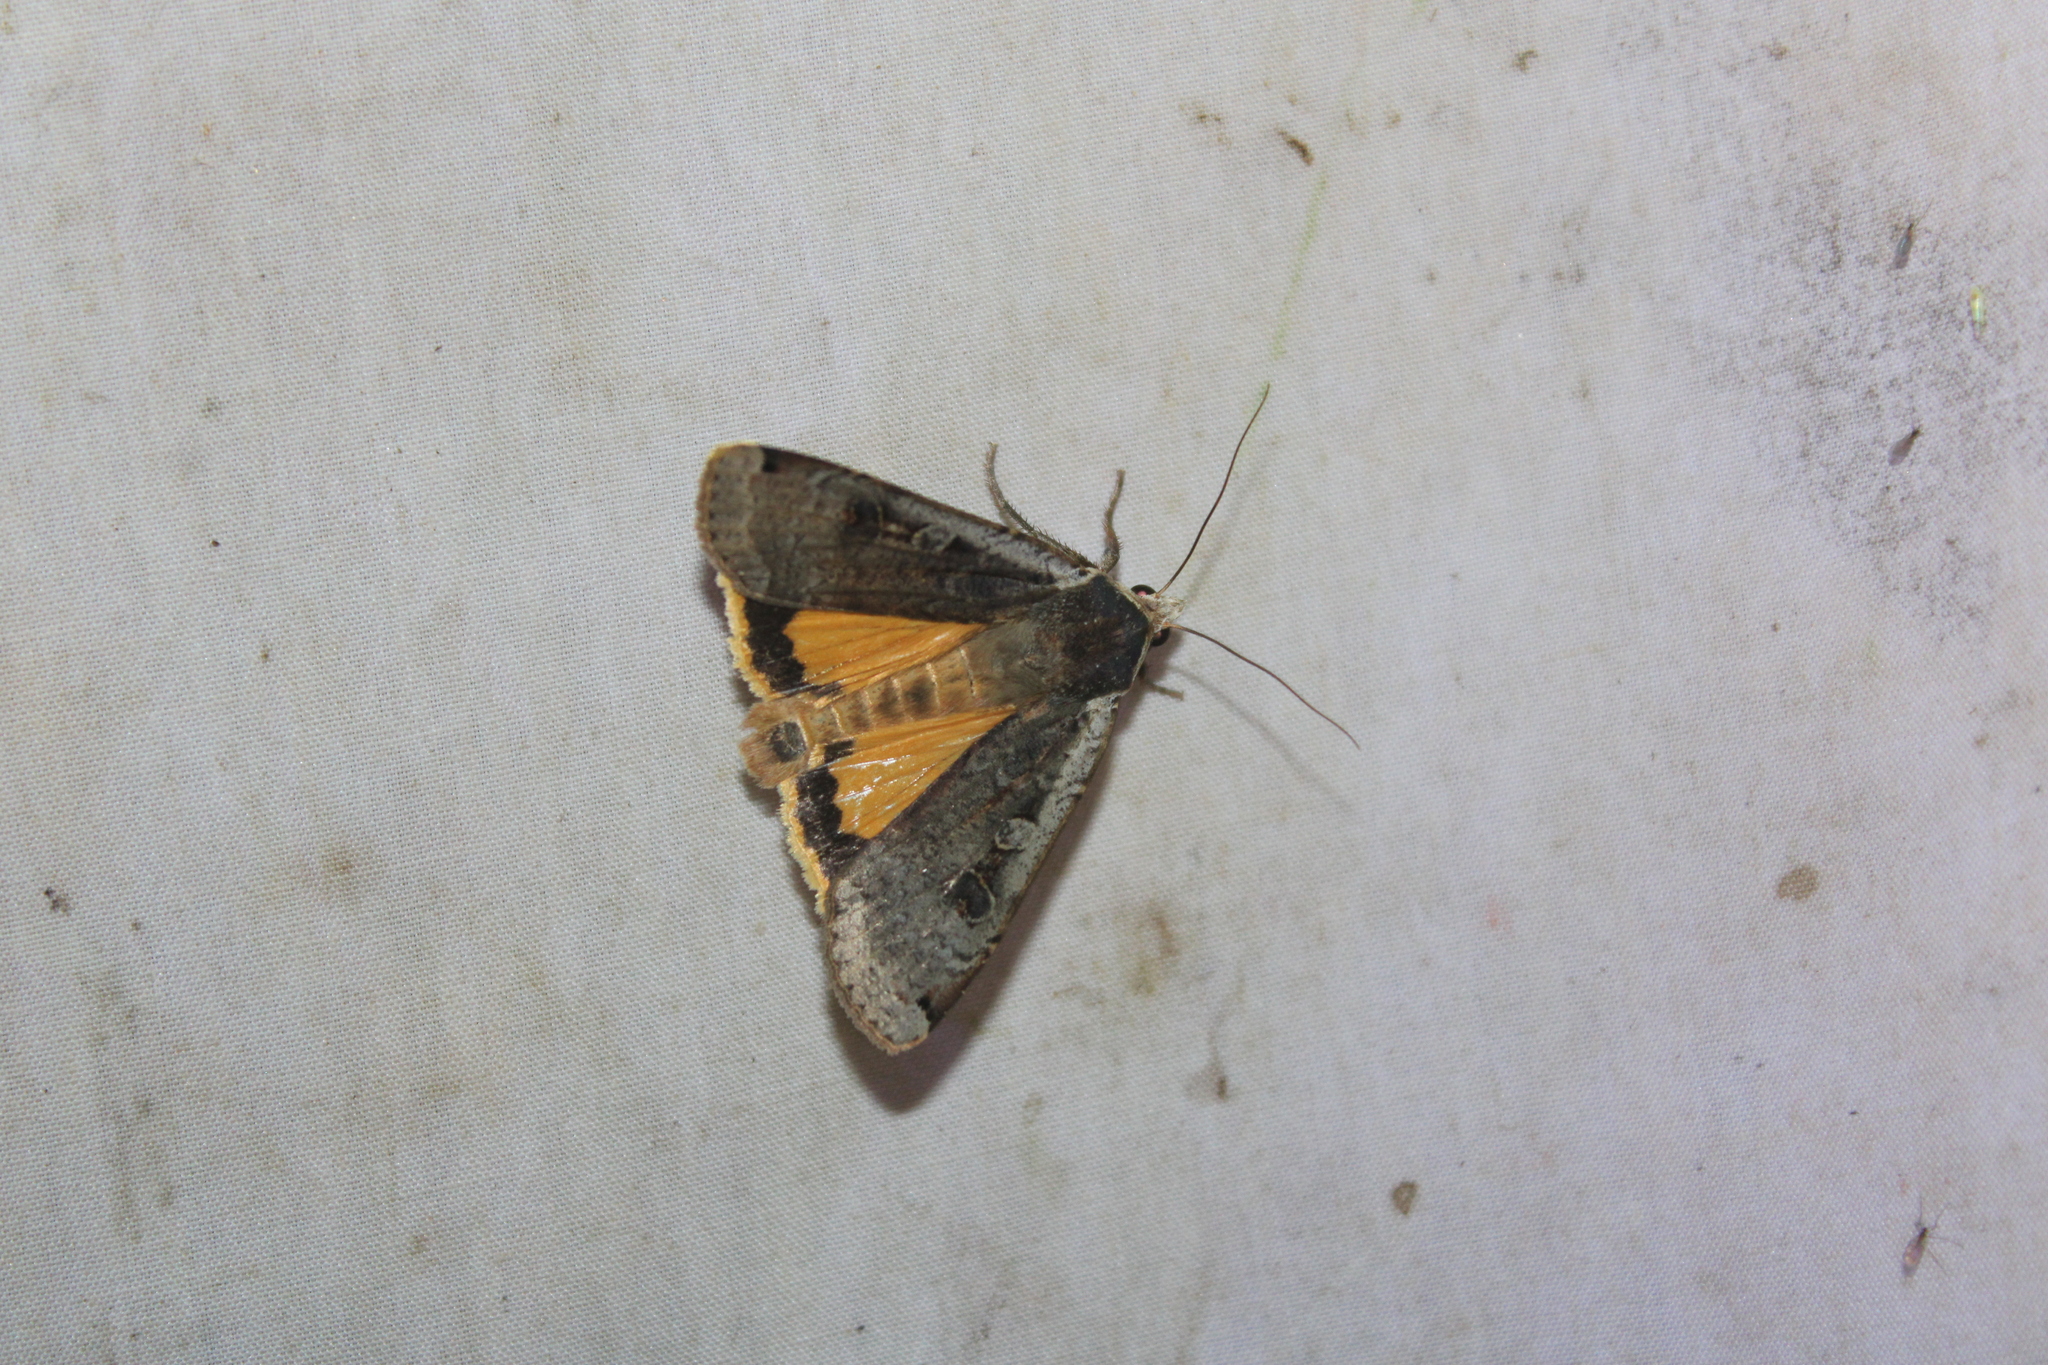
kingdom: Animalia
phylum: Arthropoda
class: Insecta
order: Lepidoptera
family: Noctuidae
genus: Noctua
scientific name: Noctua pronuba
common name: Large yellow underwing
